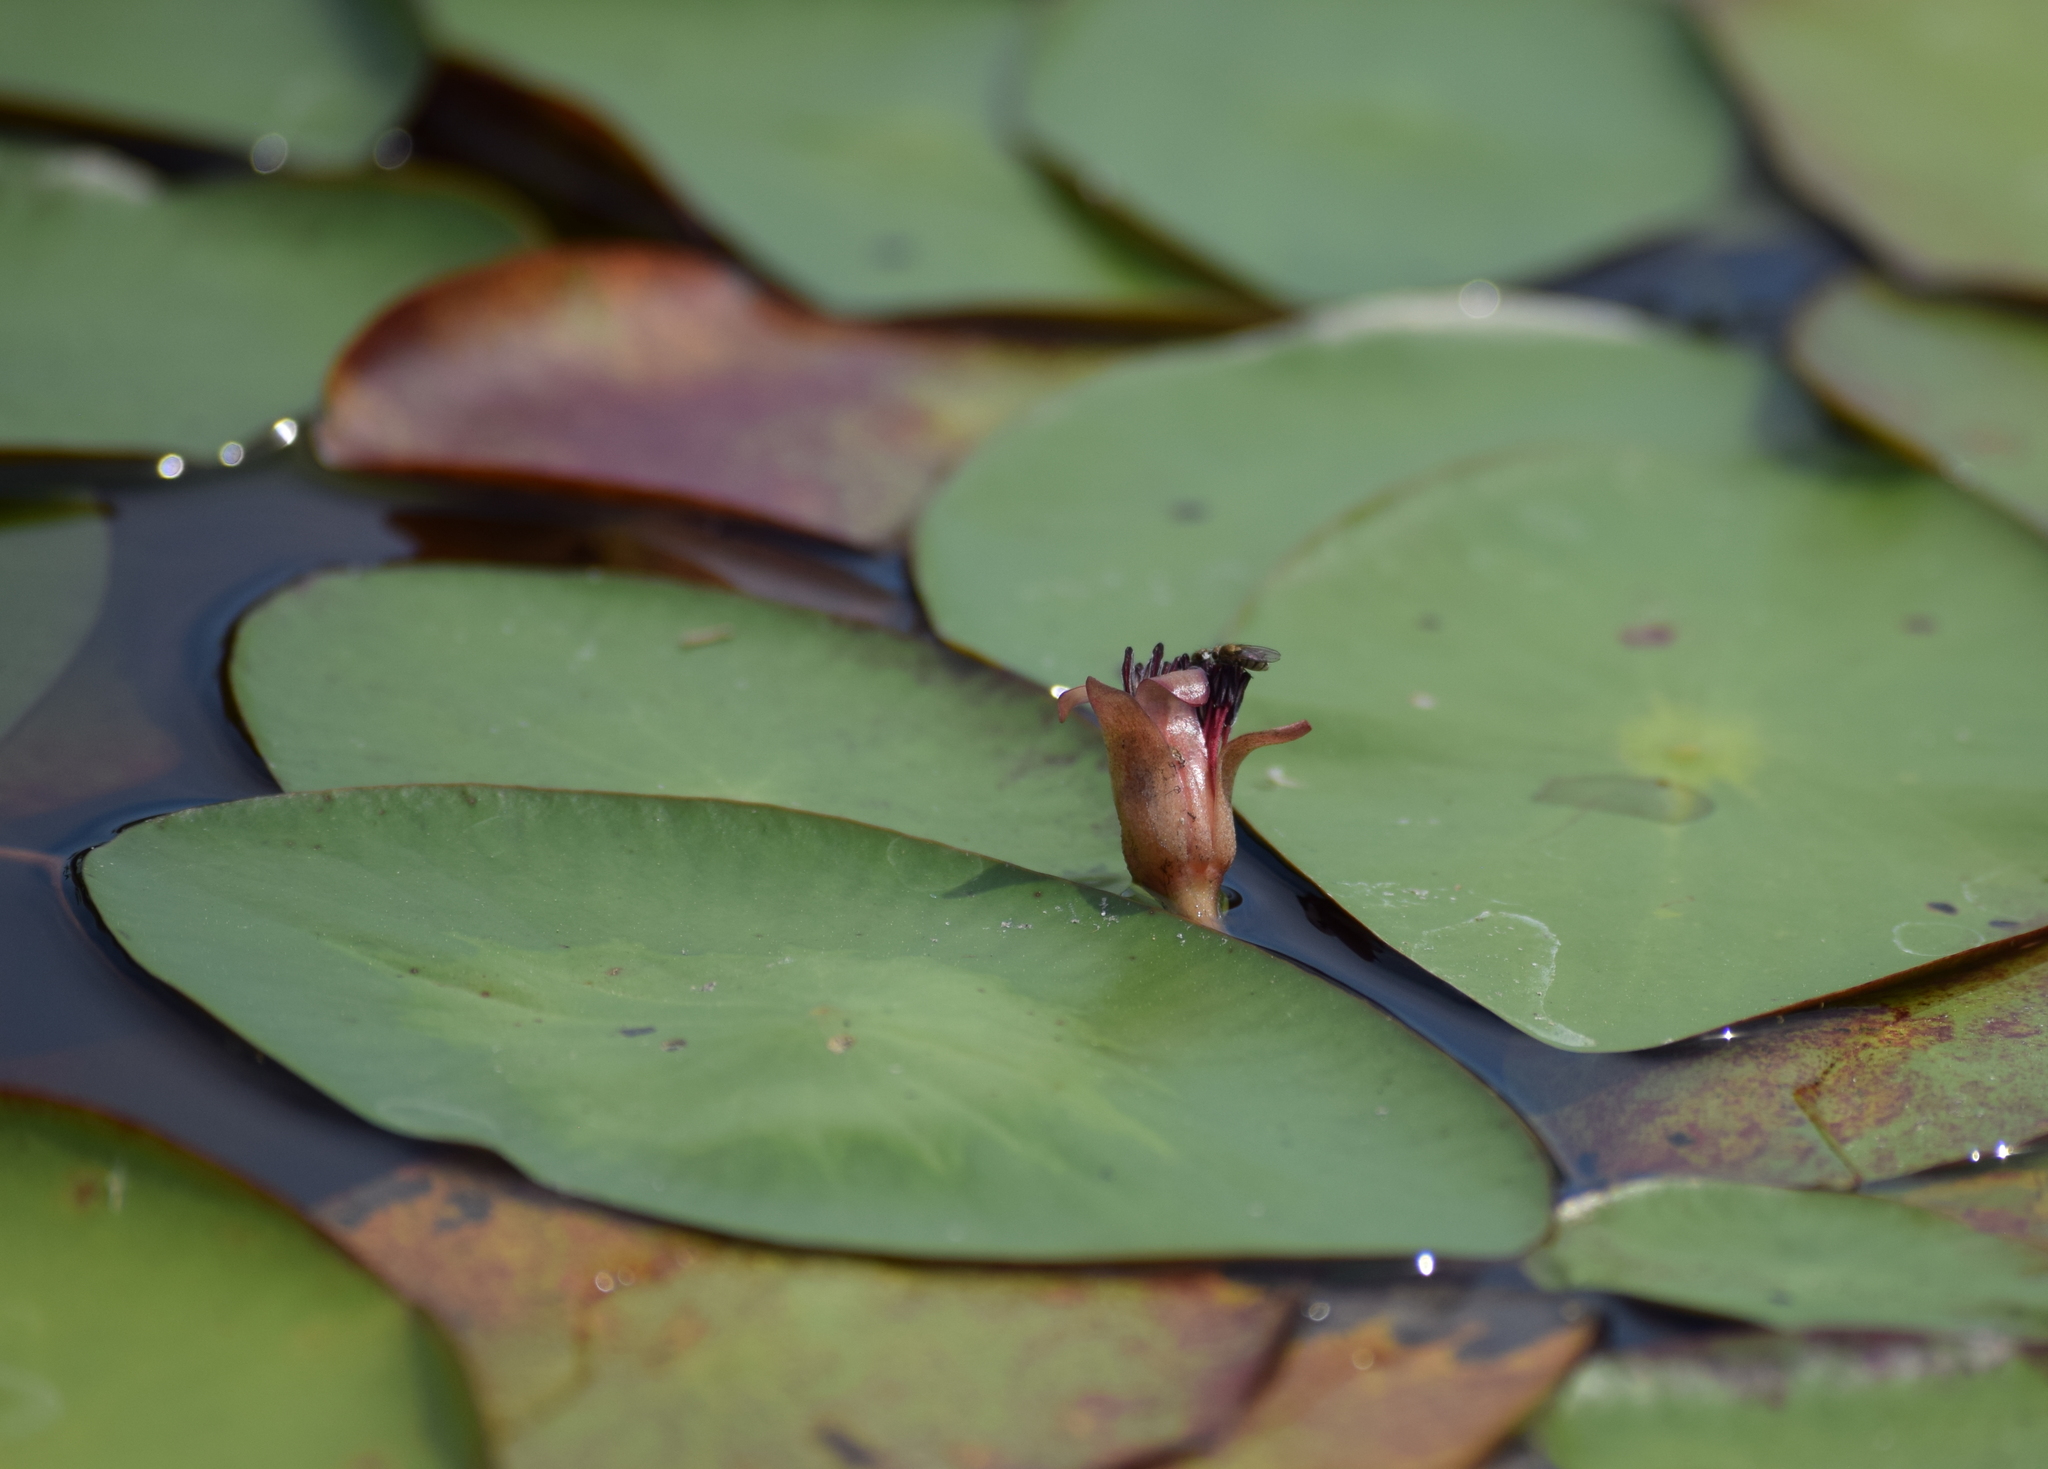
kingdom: Plantae
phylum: Tracheophyta
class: Magnoliopsida
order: Nymphaeales
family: Cabombaceae
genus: Brasenia
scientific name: Brasenia schreberi
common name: Water-shield
